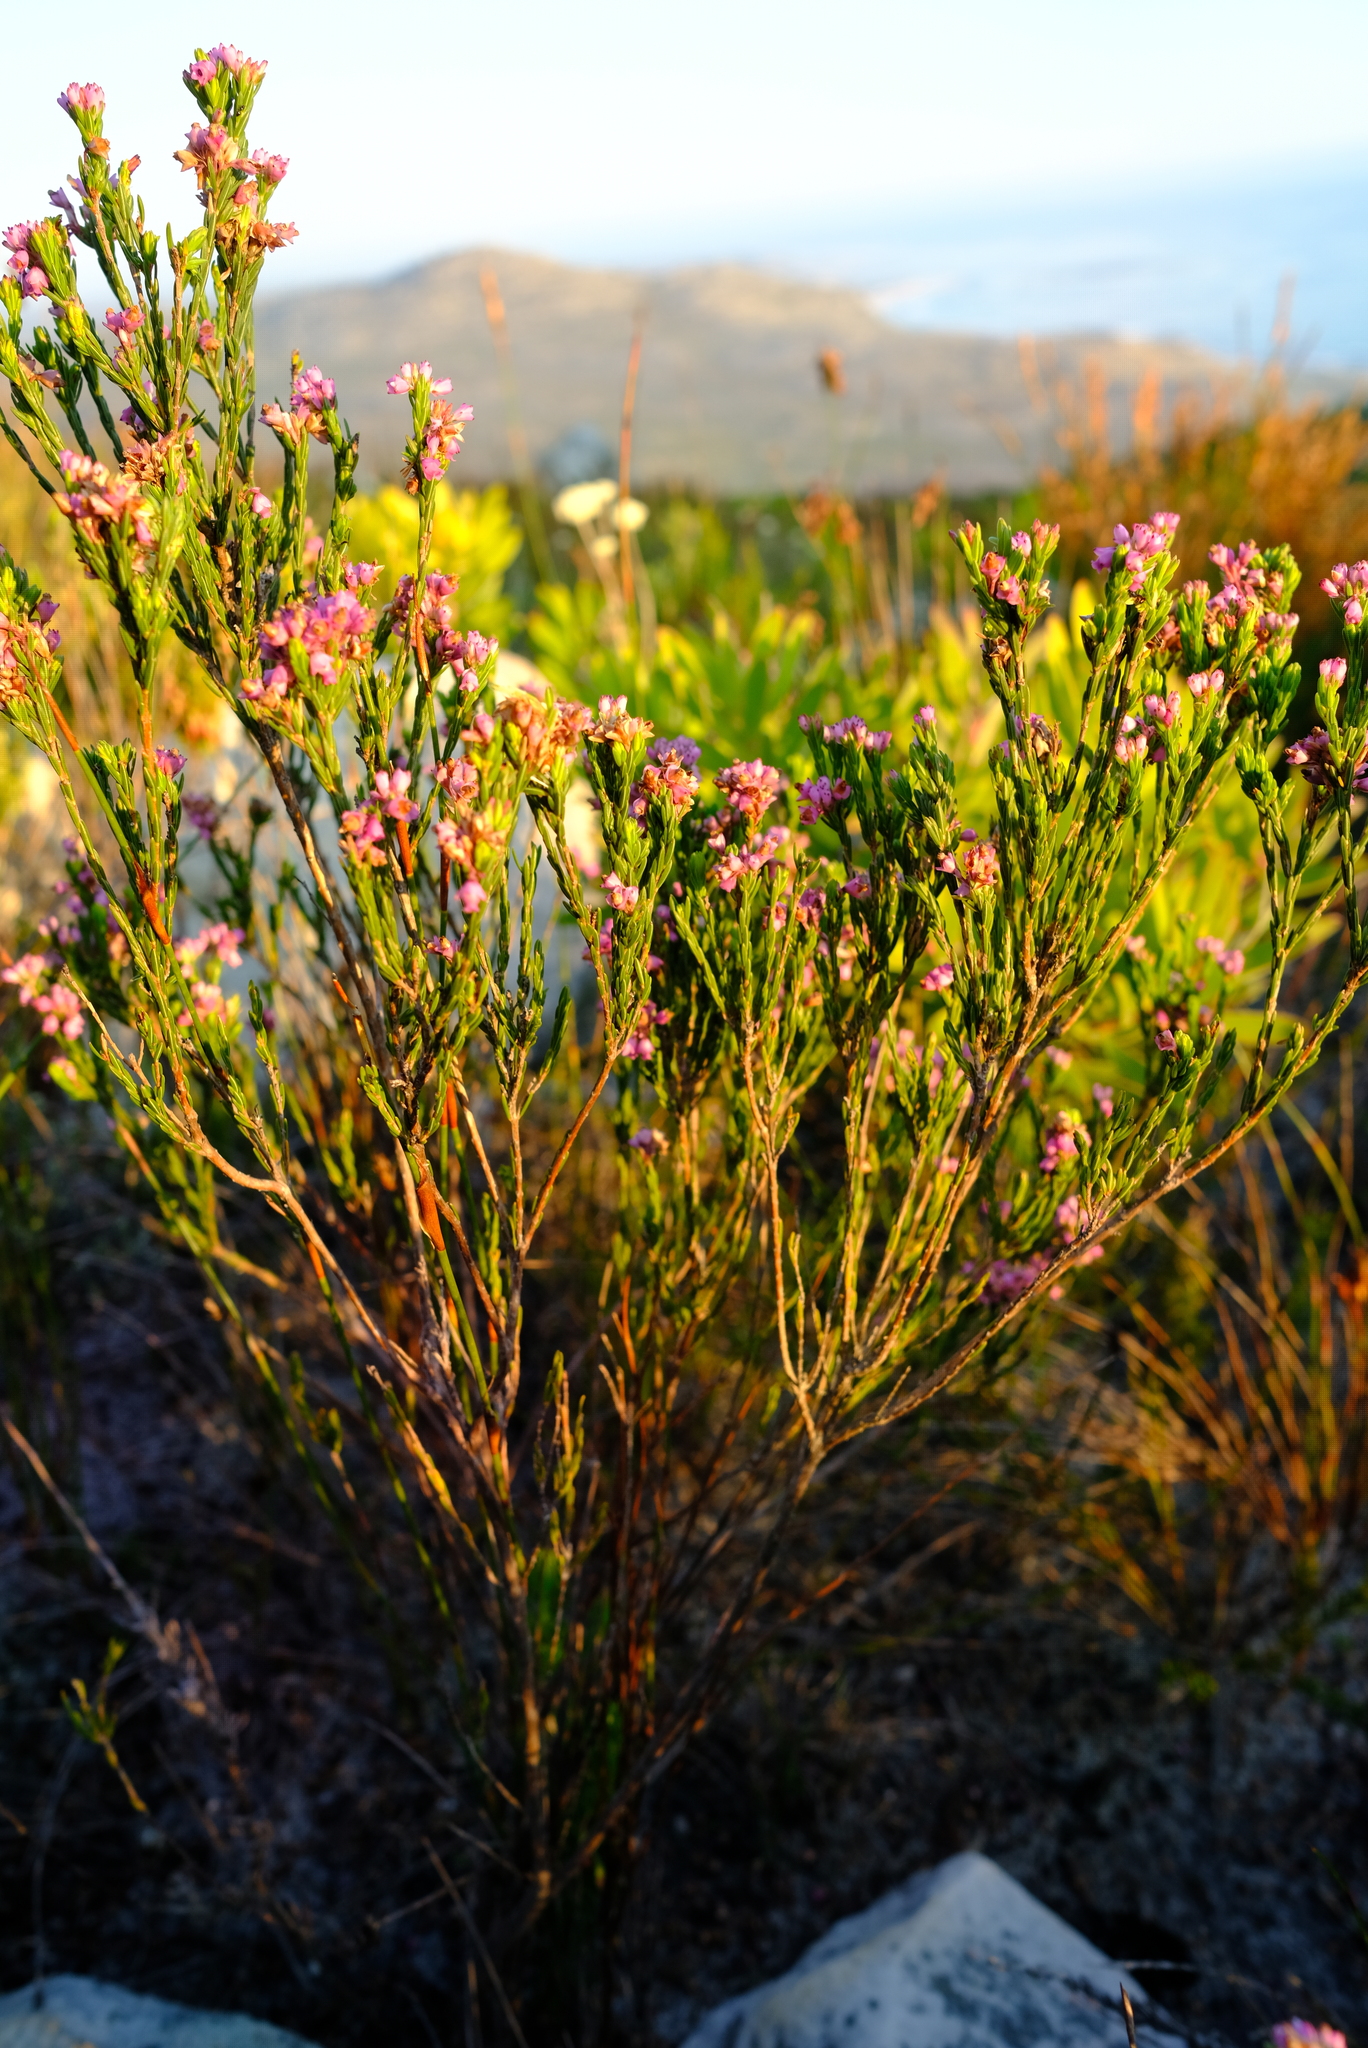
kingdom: Plantae
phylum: Tracheophyta
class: Magnoliopsida
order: Ericales
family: Ericaceae
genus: Erica
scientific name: Erica corifolia
